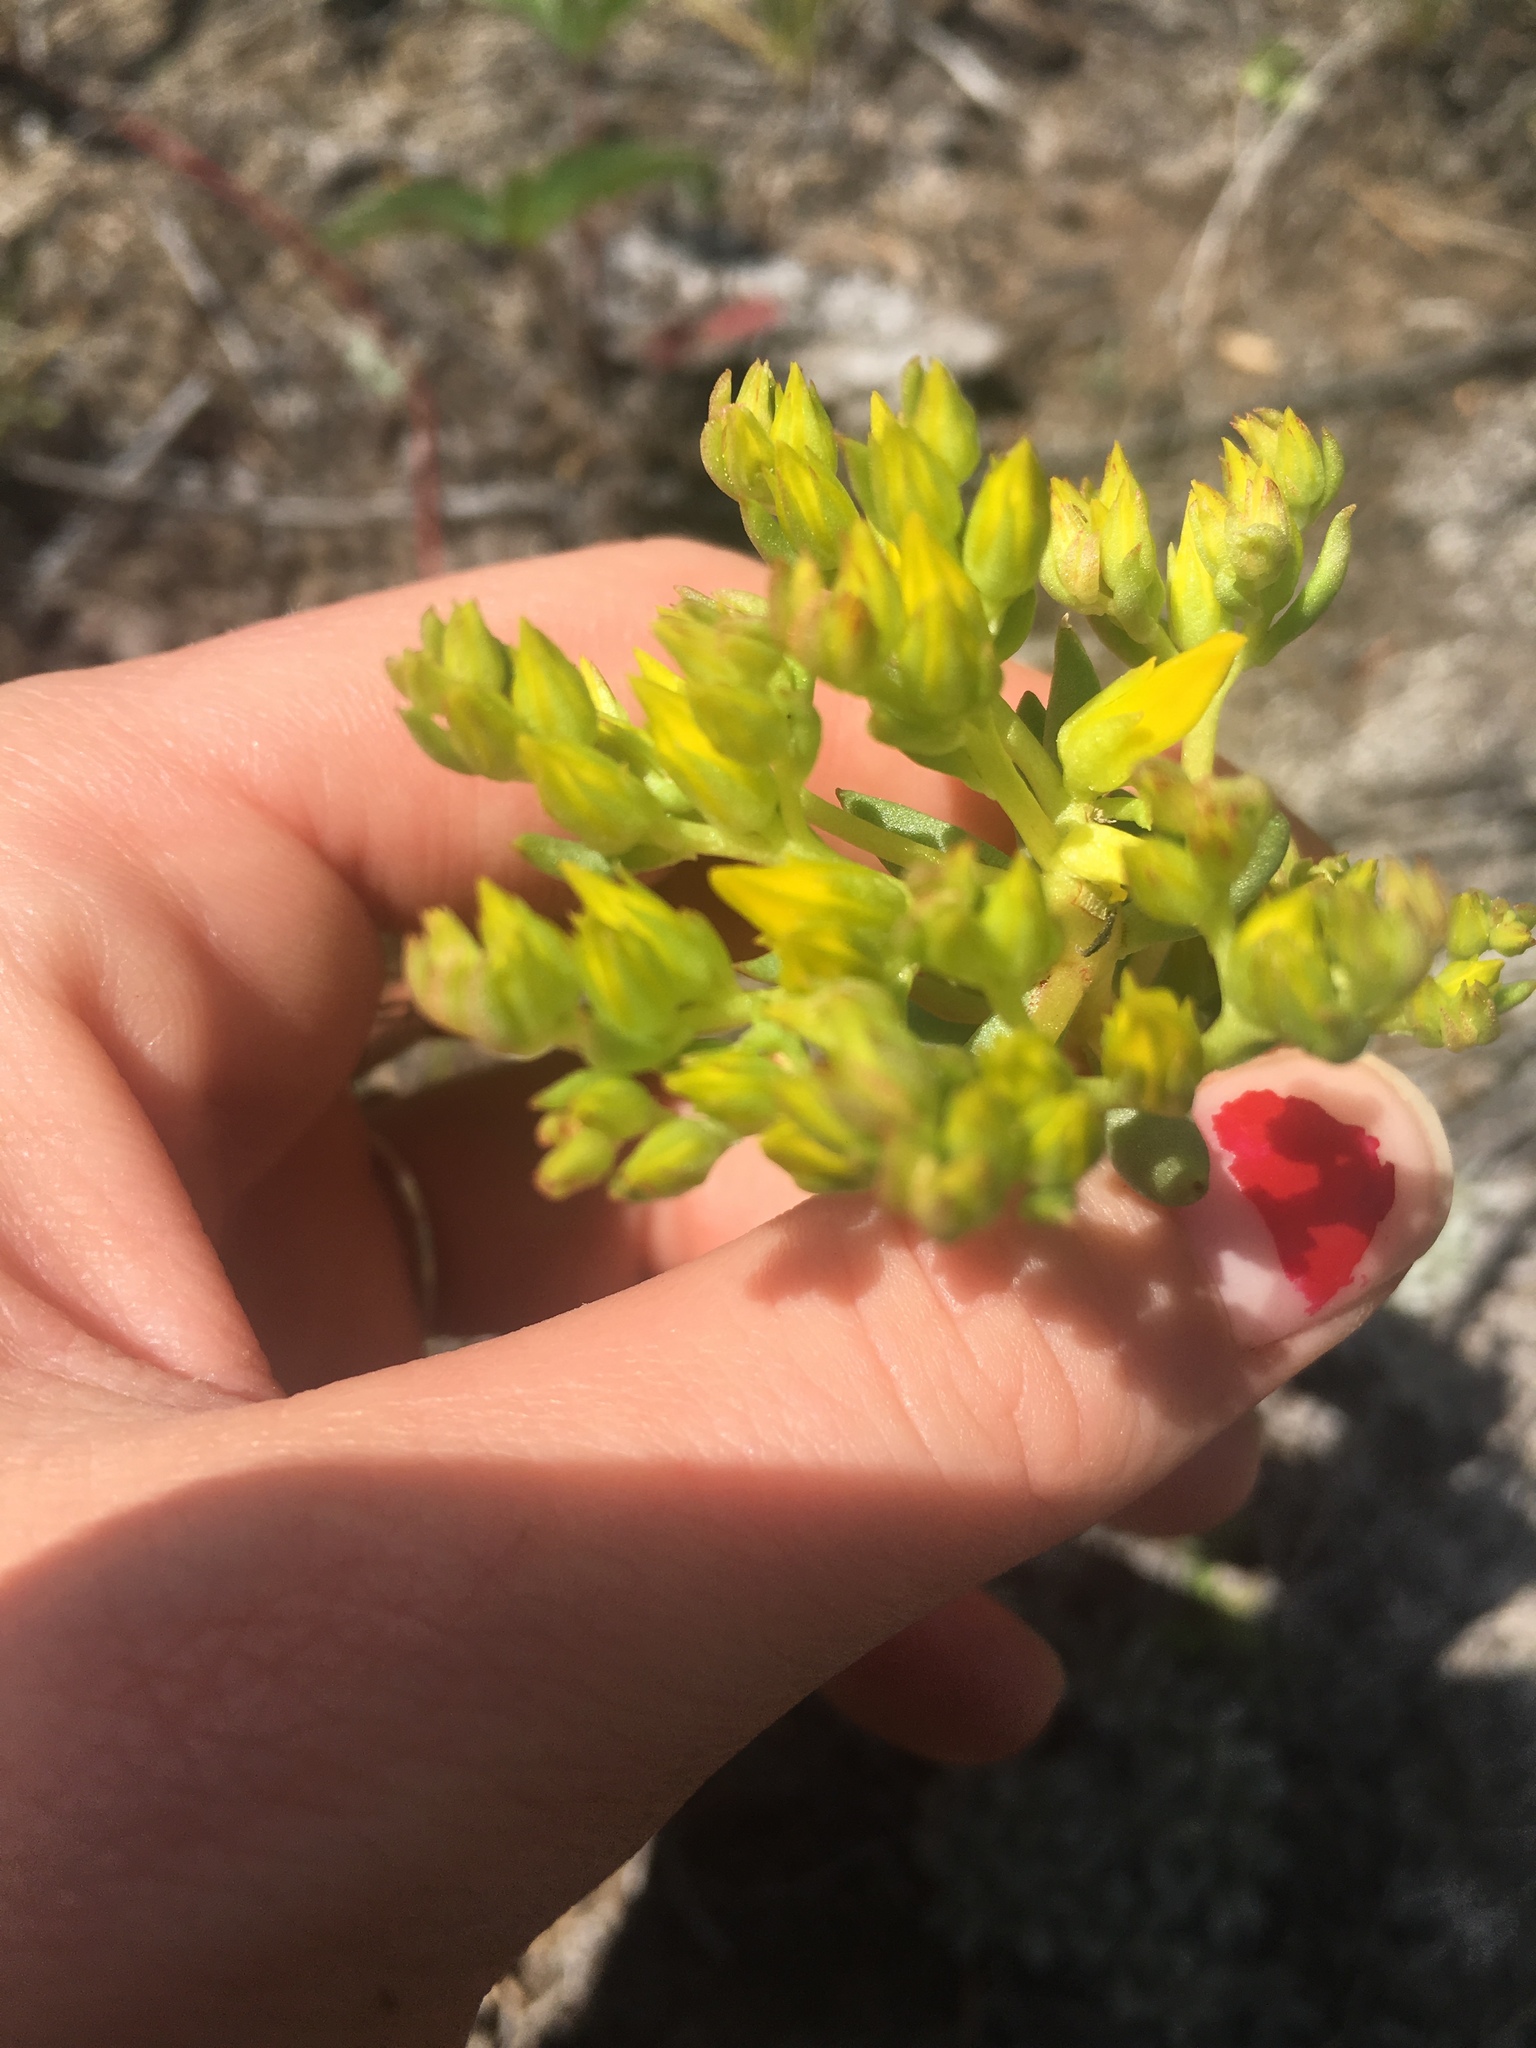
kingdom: Plantae
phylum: Tracheophyta
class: Magnoliopsida
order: Saxifragales
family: Crassulaceae
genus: Sedum
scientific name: Sedum lanceolatum
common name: Common stonecrop
